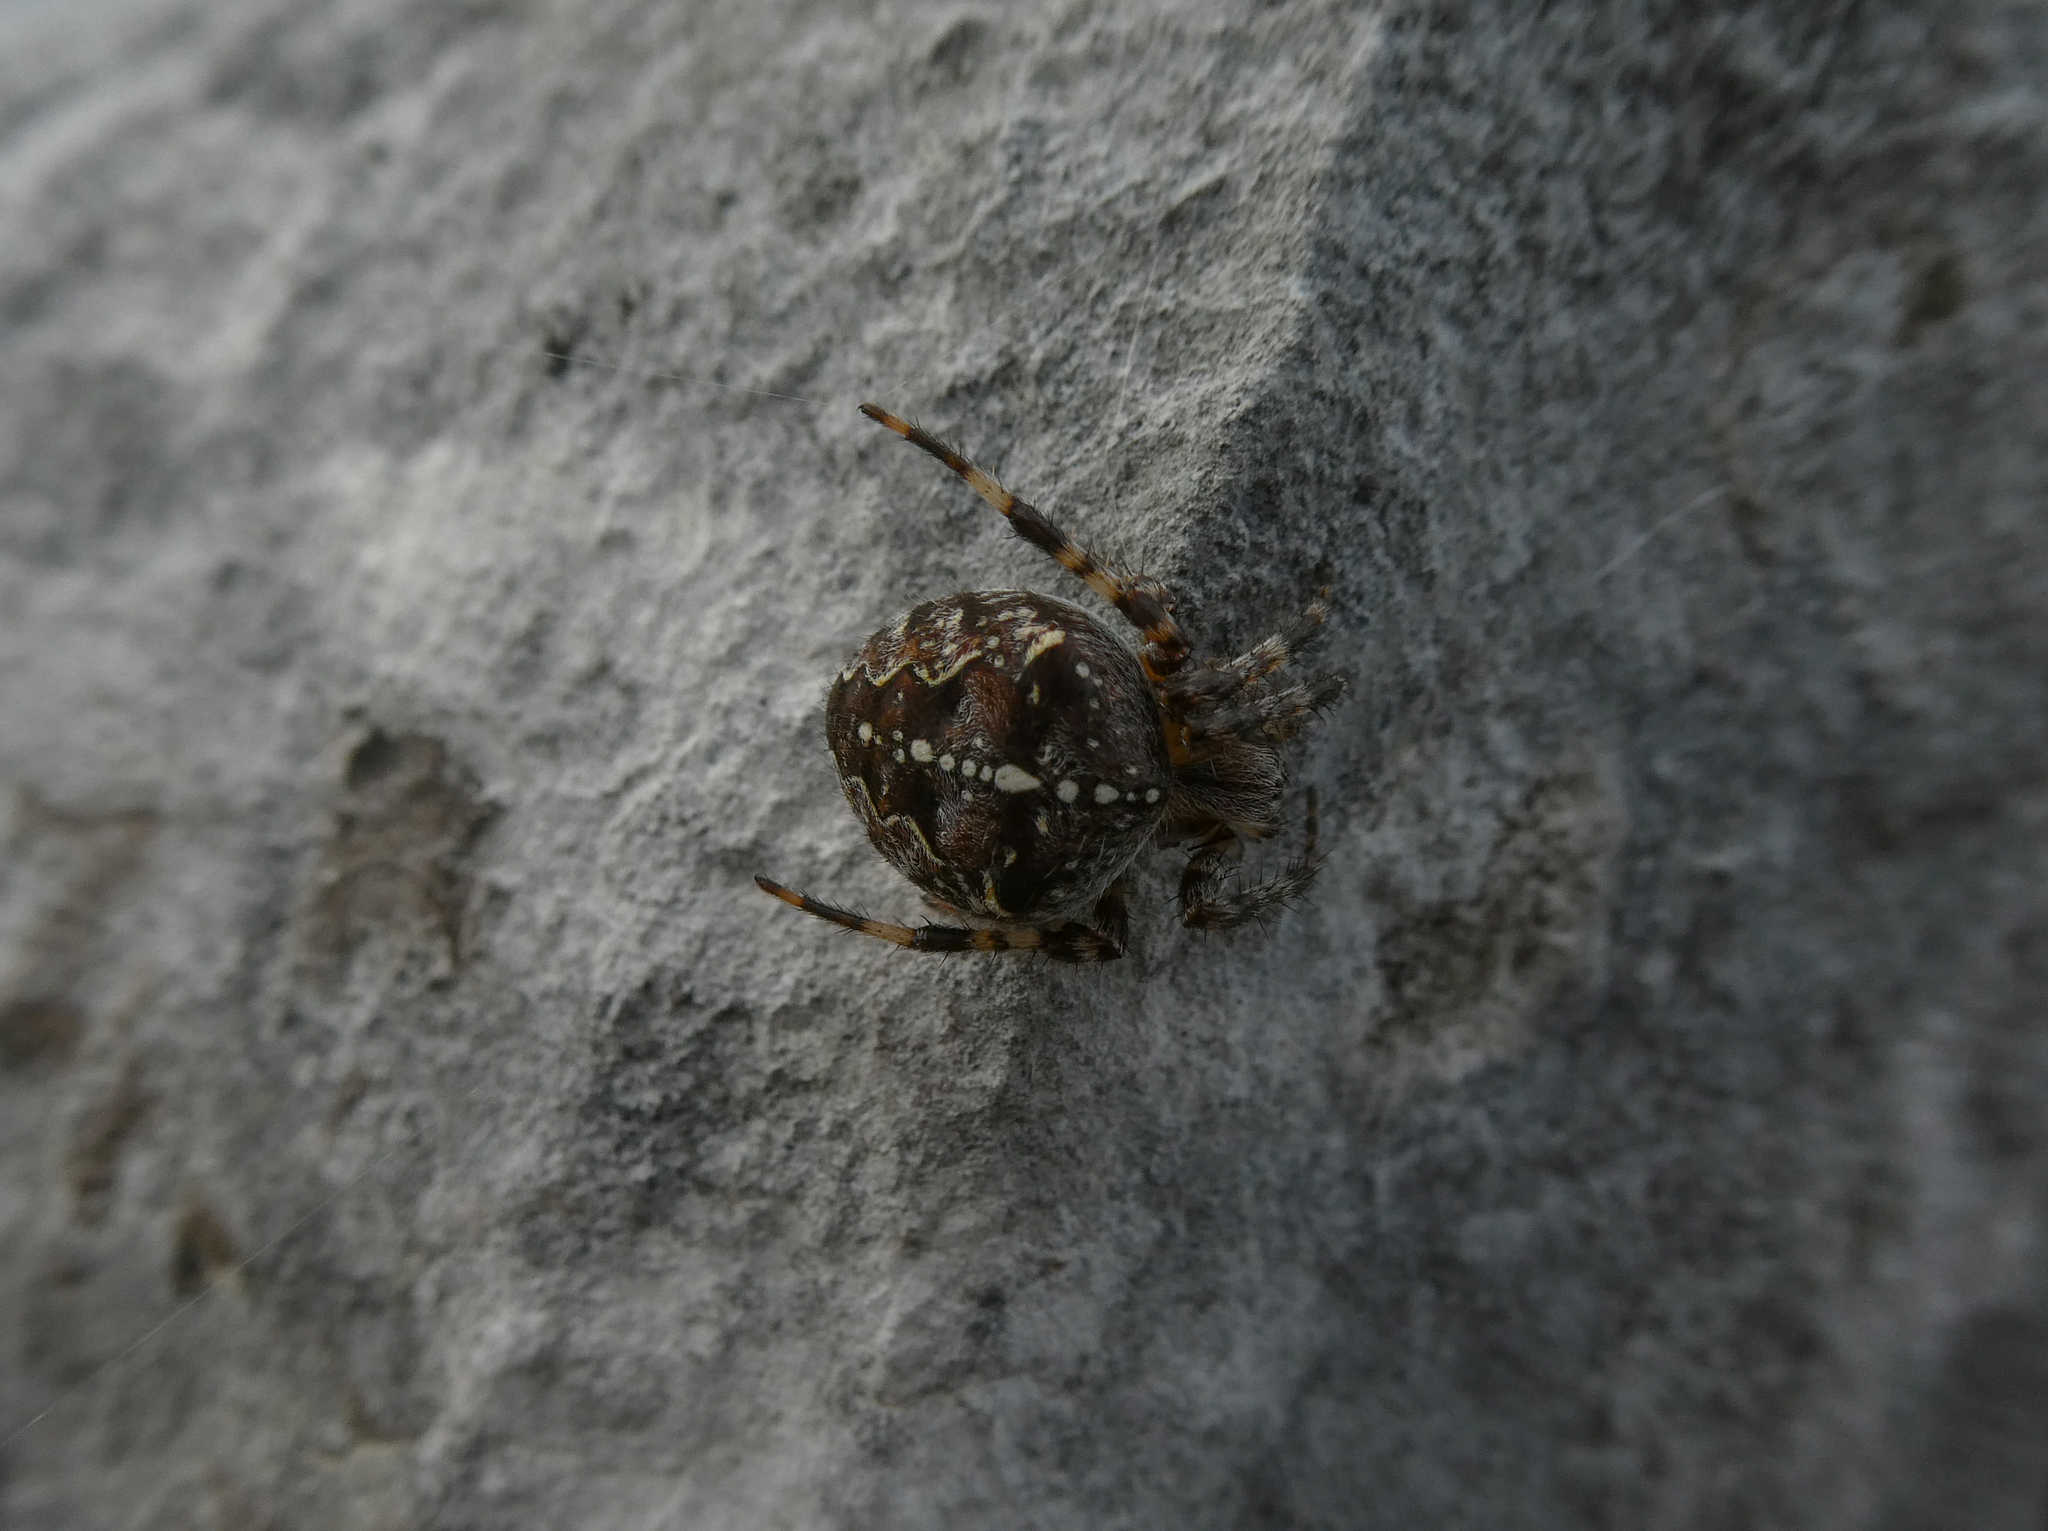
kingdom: Animalia
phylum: Arthropoda
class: Arachnida
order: Araneae
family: Araneidae
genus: Araneus
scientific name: Araneus diadematus
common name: Cross orbweaver
